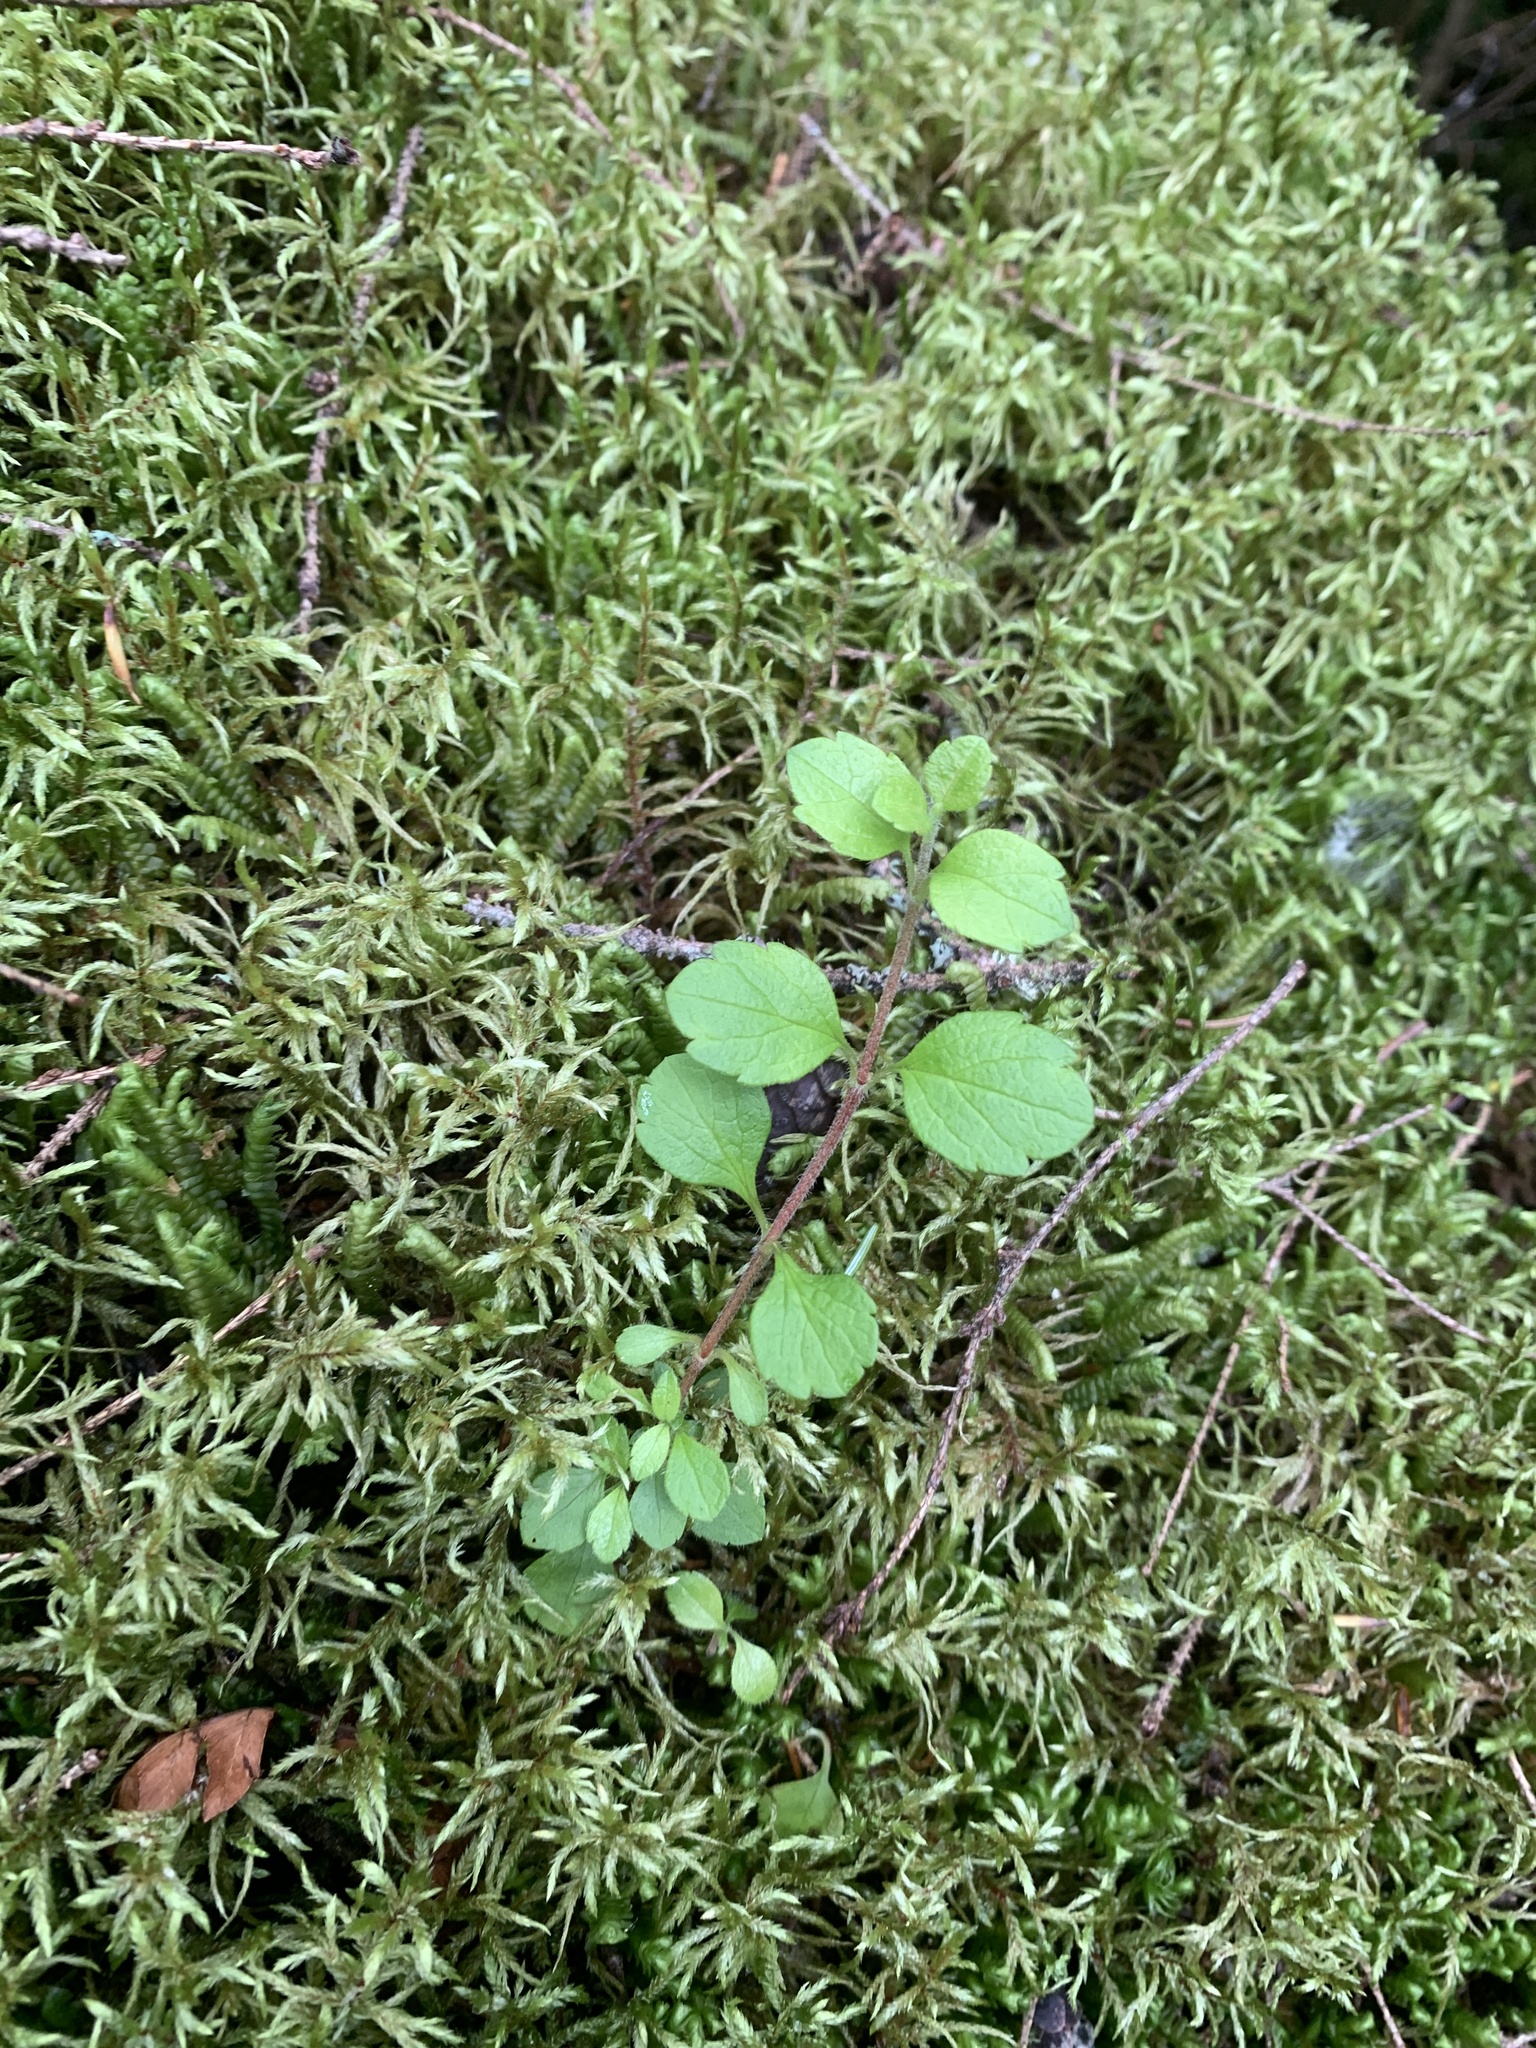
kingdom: Plantae
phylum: Tracheophyta
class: Magnoliopsida
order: Dipsacales
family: Caprifoliaceae
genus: Linnaea
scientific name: Linnaea borealis
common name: Twinflower
